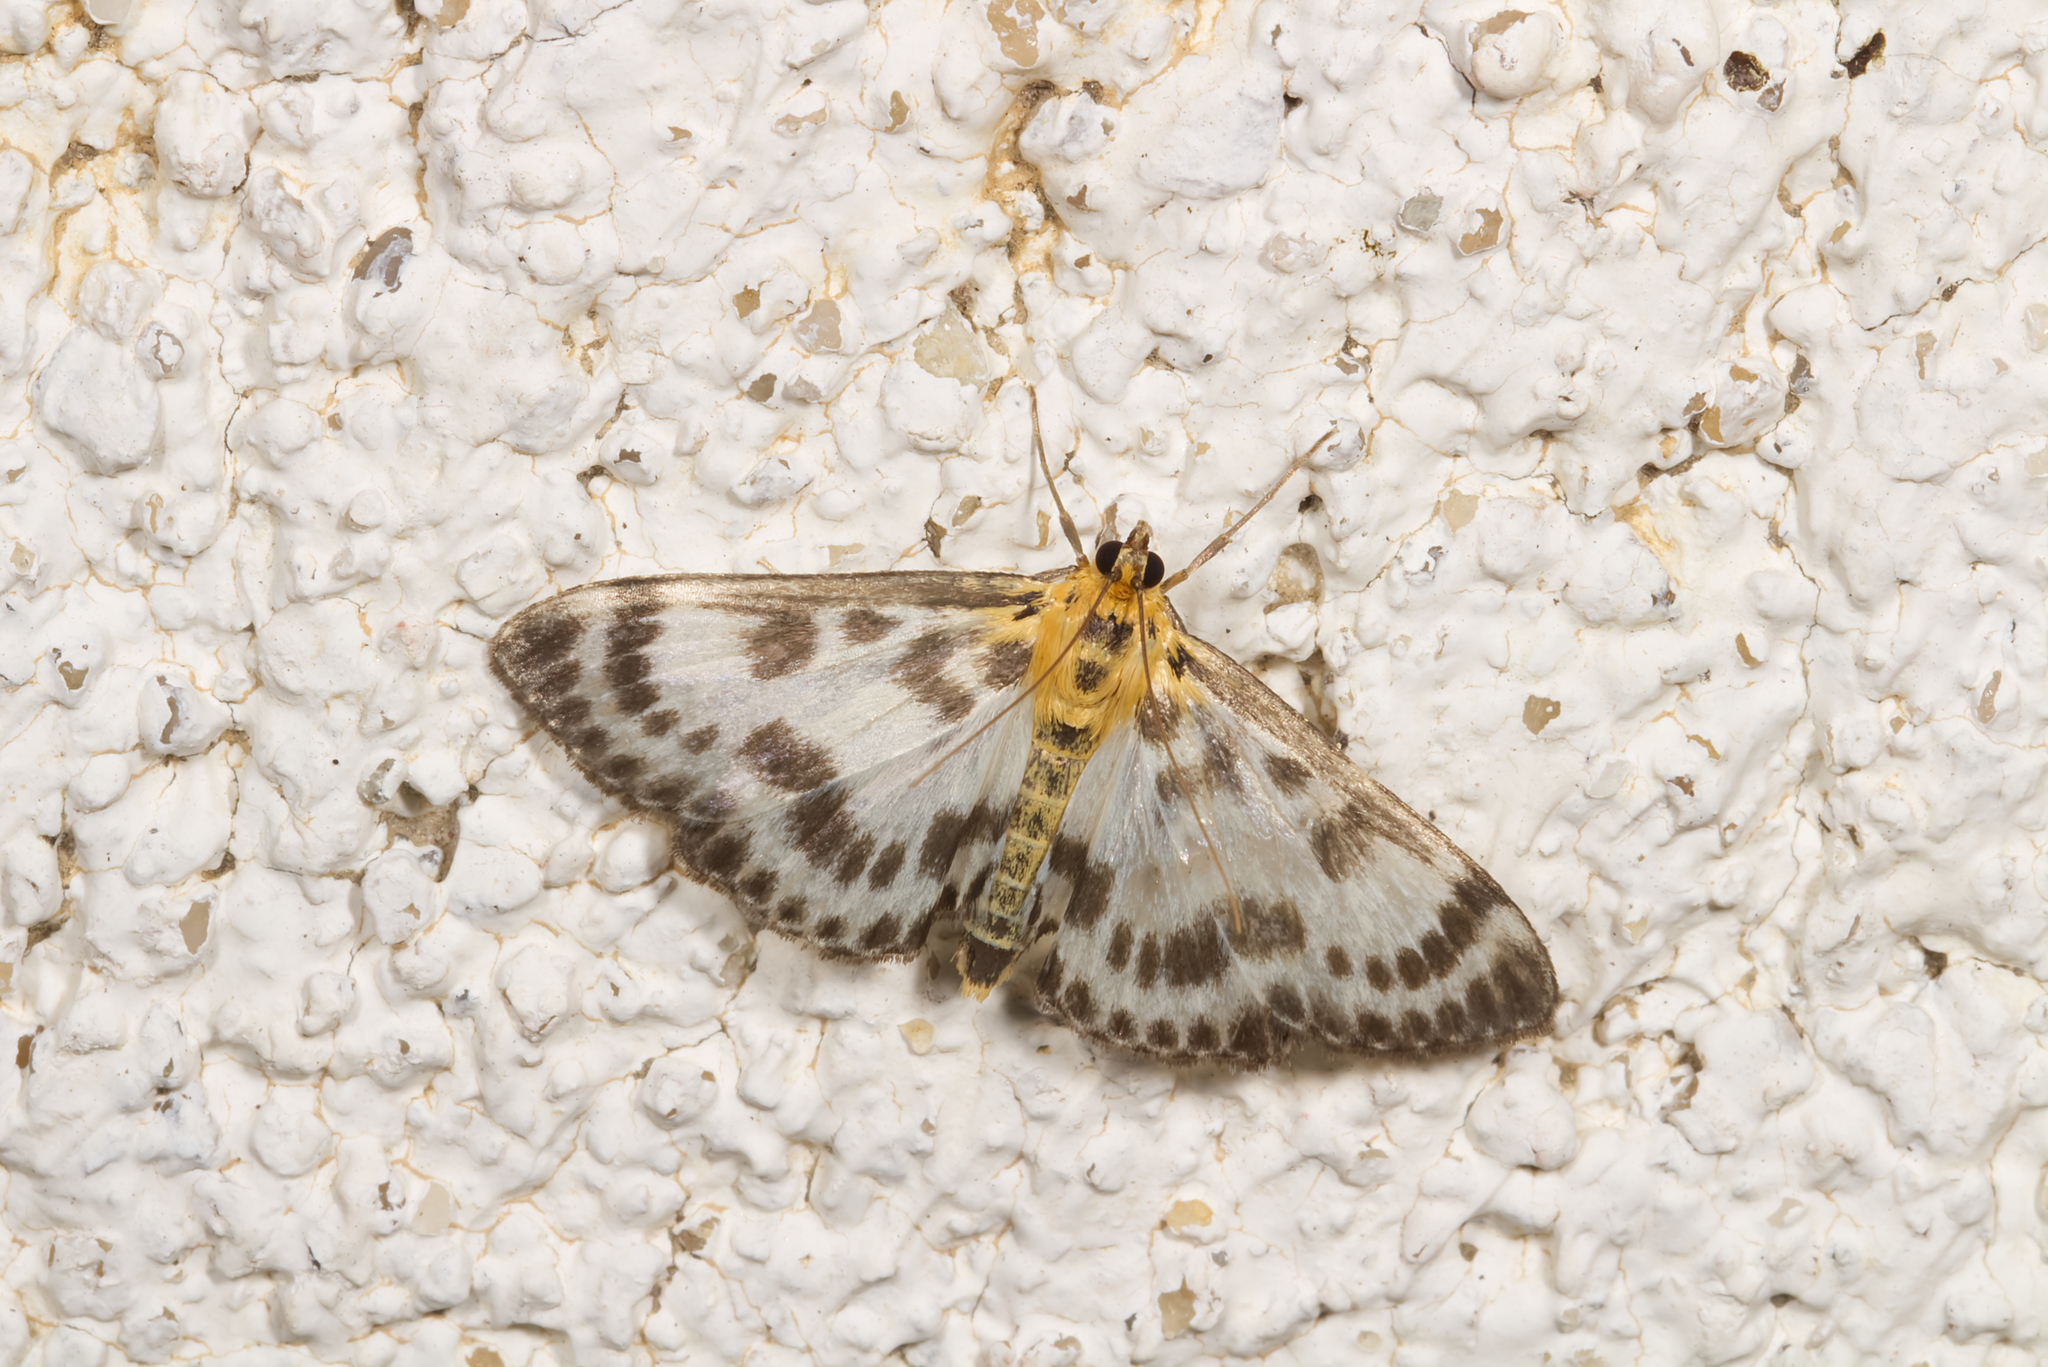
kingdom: Animalia
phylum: Arthropoda
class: Insecta
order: Lepidoptera
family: Crambidae
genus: Anania
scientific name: Anania hortulata
